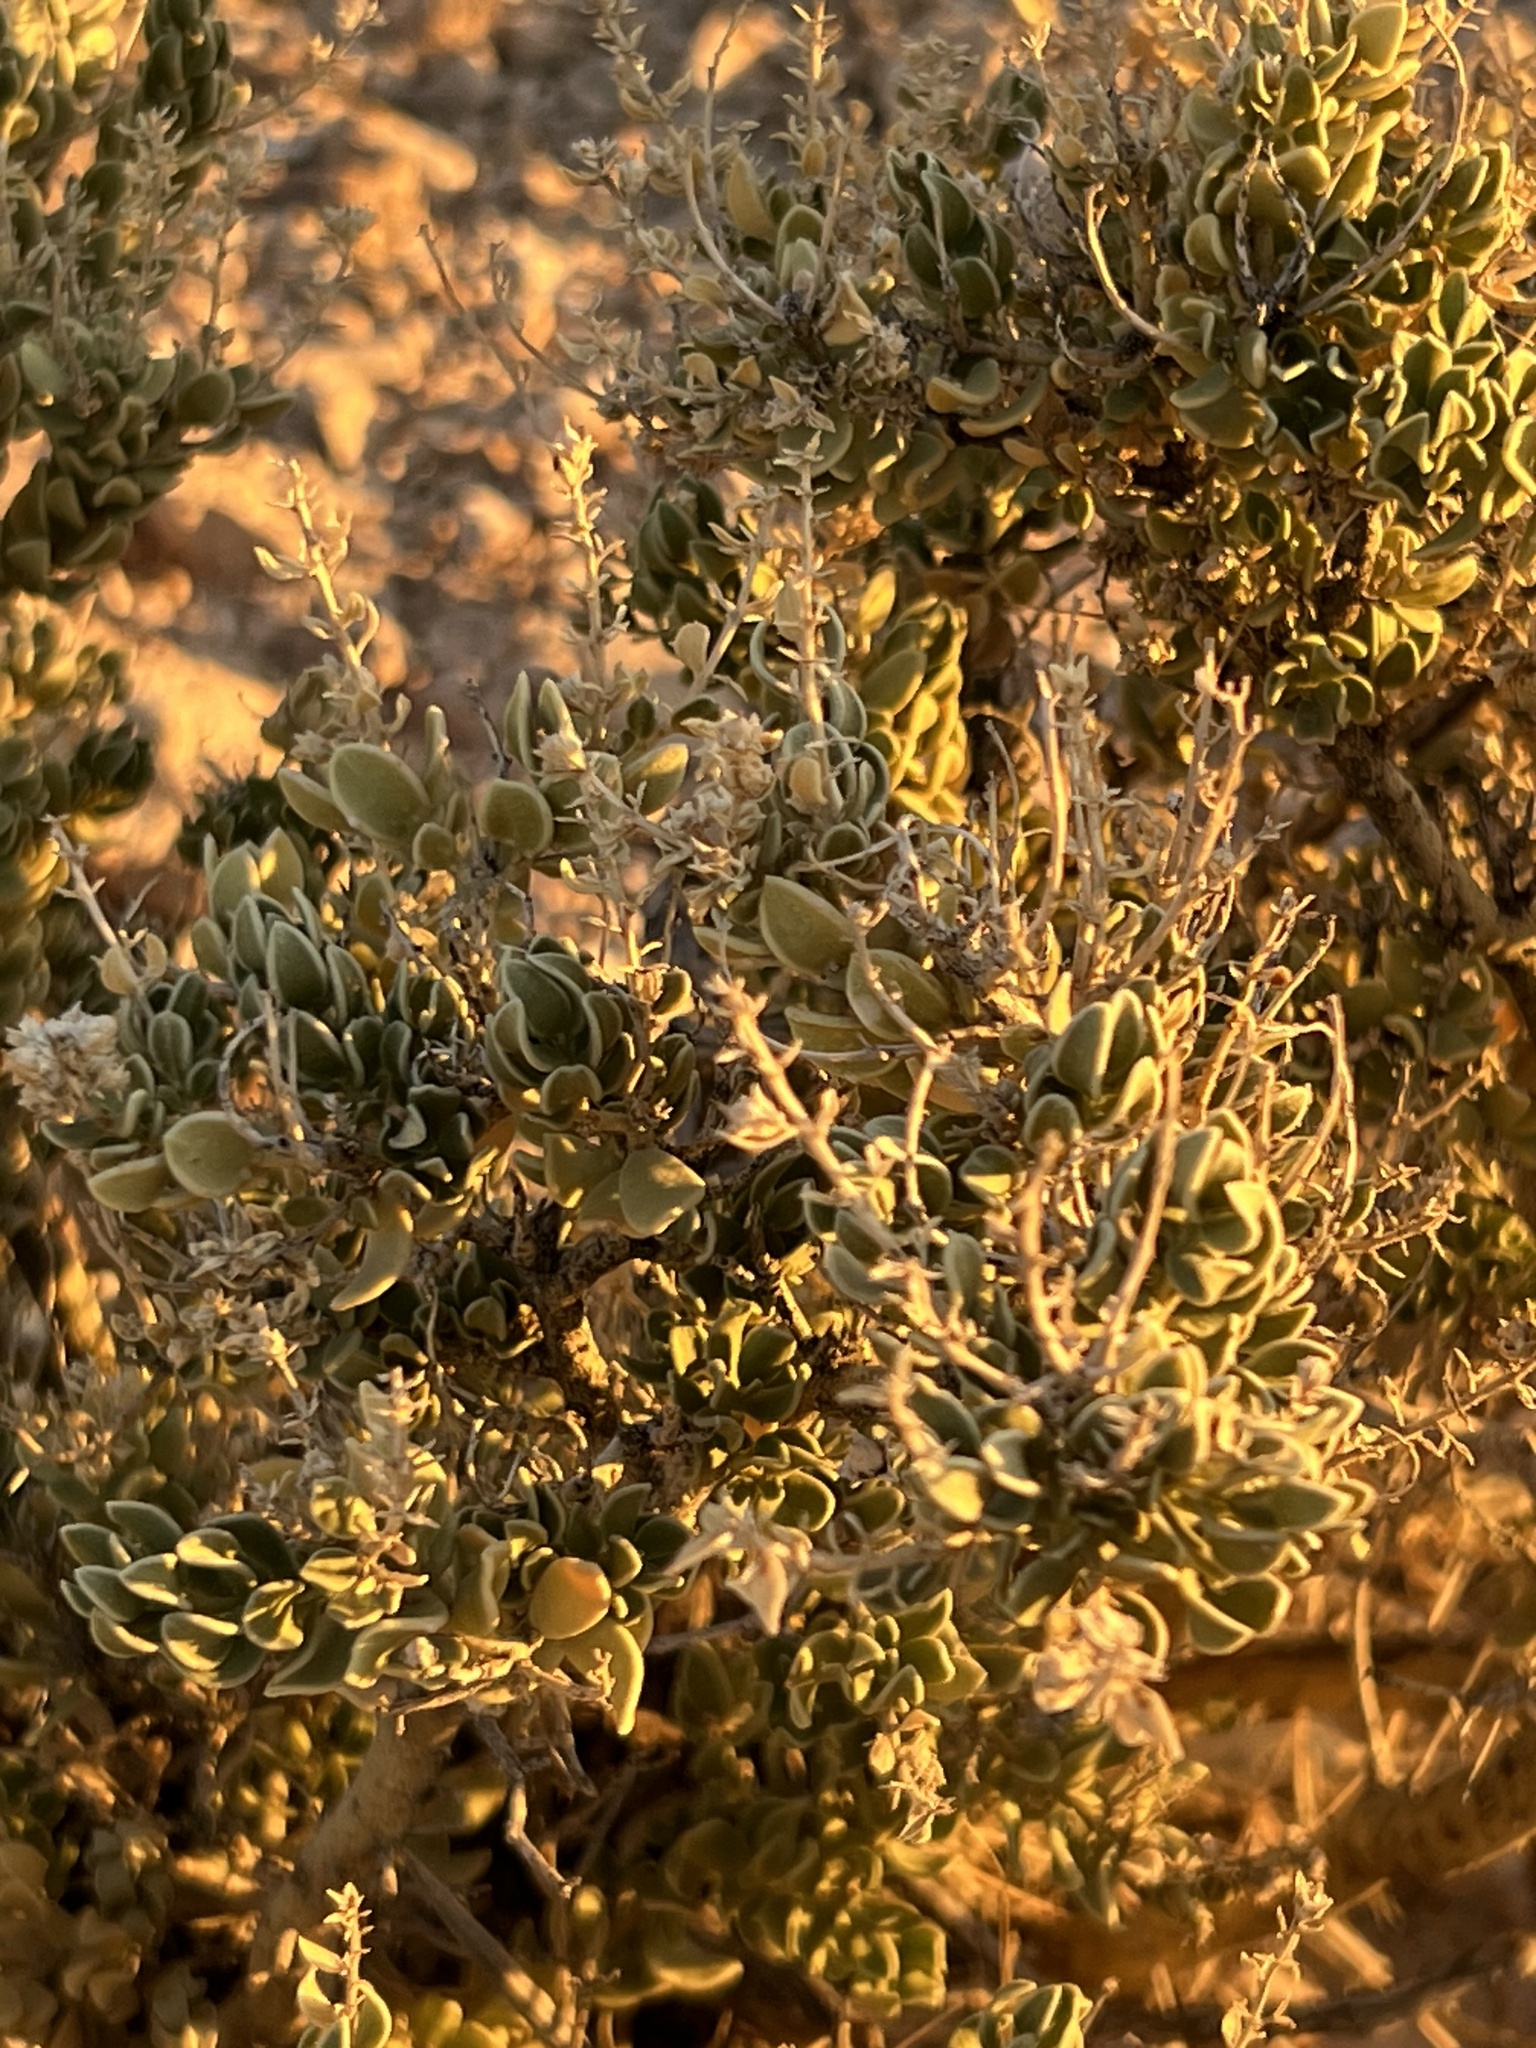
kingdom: Plantae
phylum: Tracheophyta
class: Magnoliopsida
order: Celastrales
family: Celastraceae
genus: Mortonia
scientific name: Mortonia utahensis
